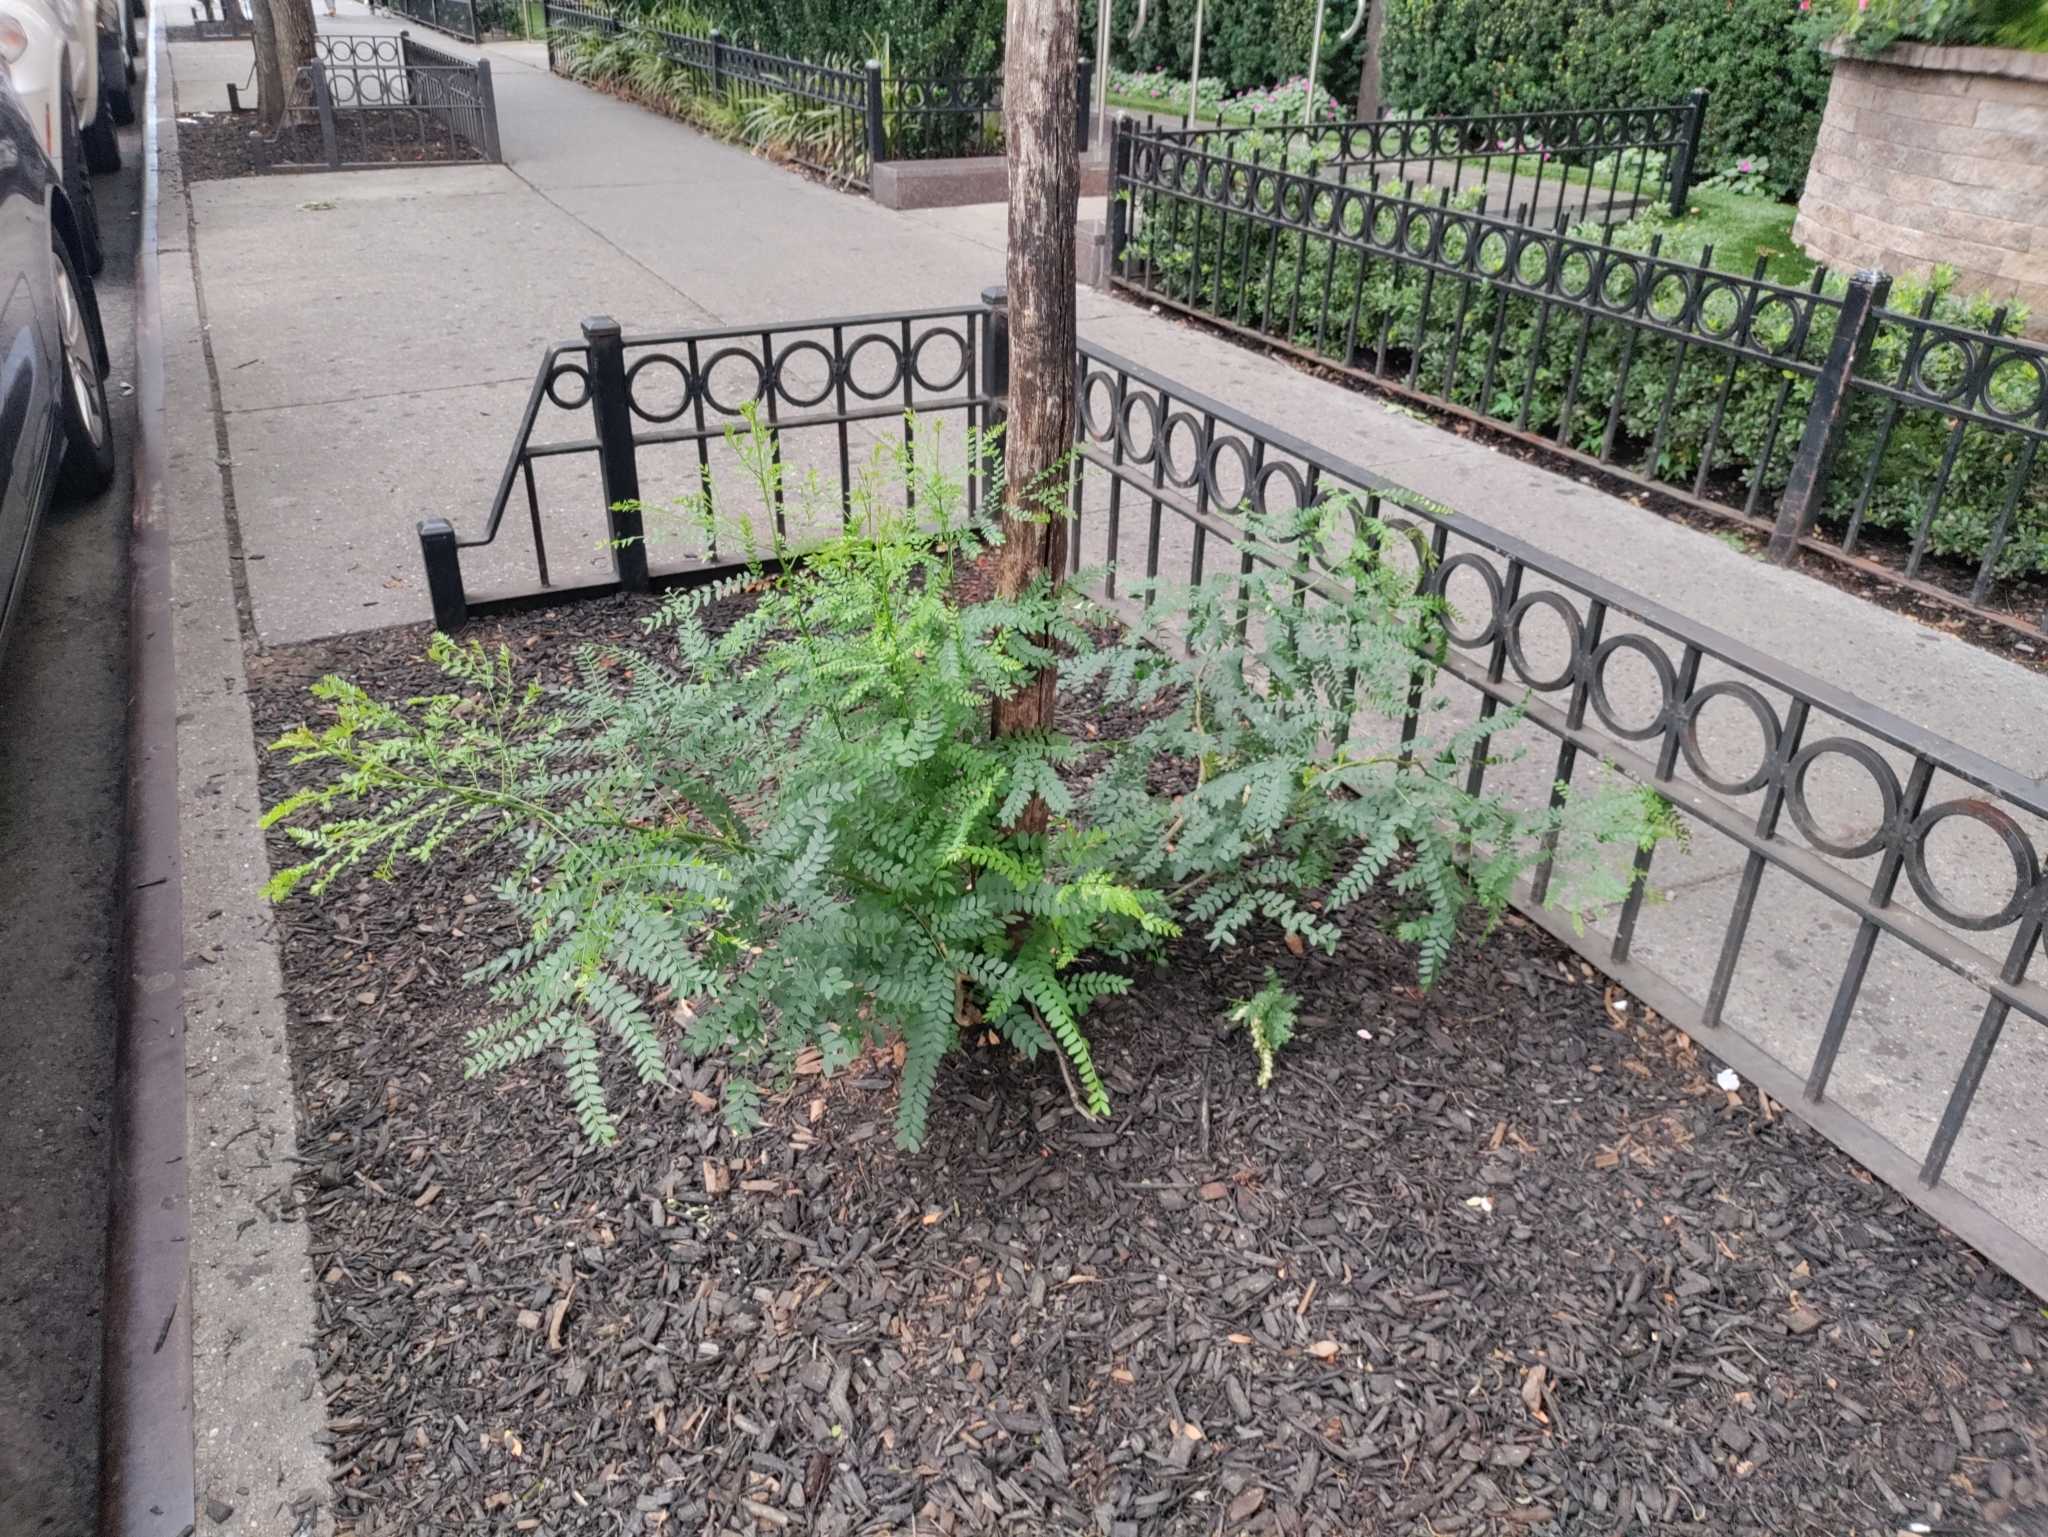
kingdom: Plantae
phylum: Tracheophyta
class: Magnoliopsida
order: Fabales
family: Fabaceae
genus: Robinia
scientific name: Robinia pseudoacacia
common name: Black locust
